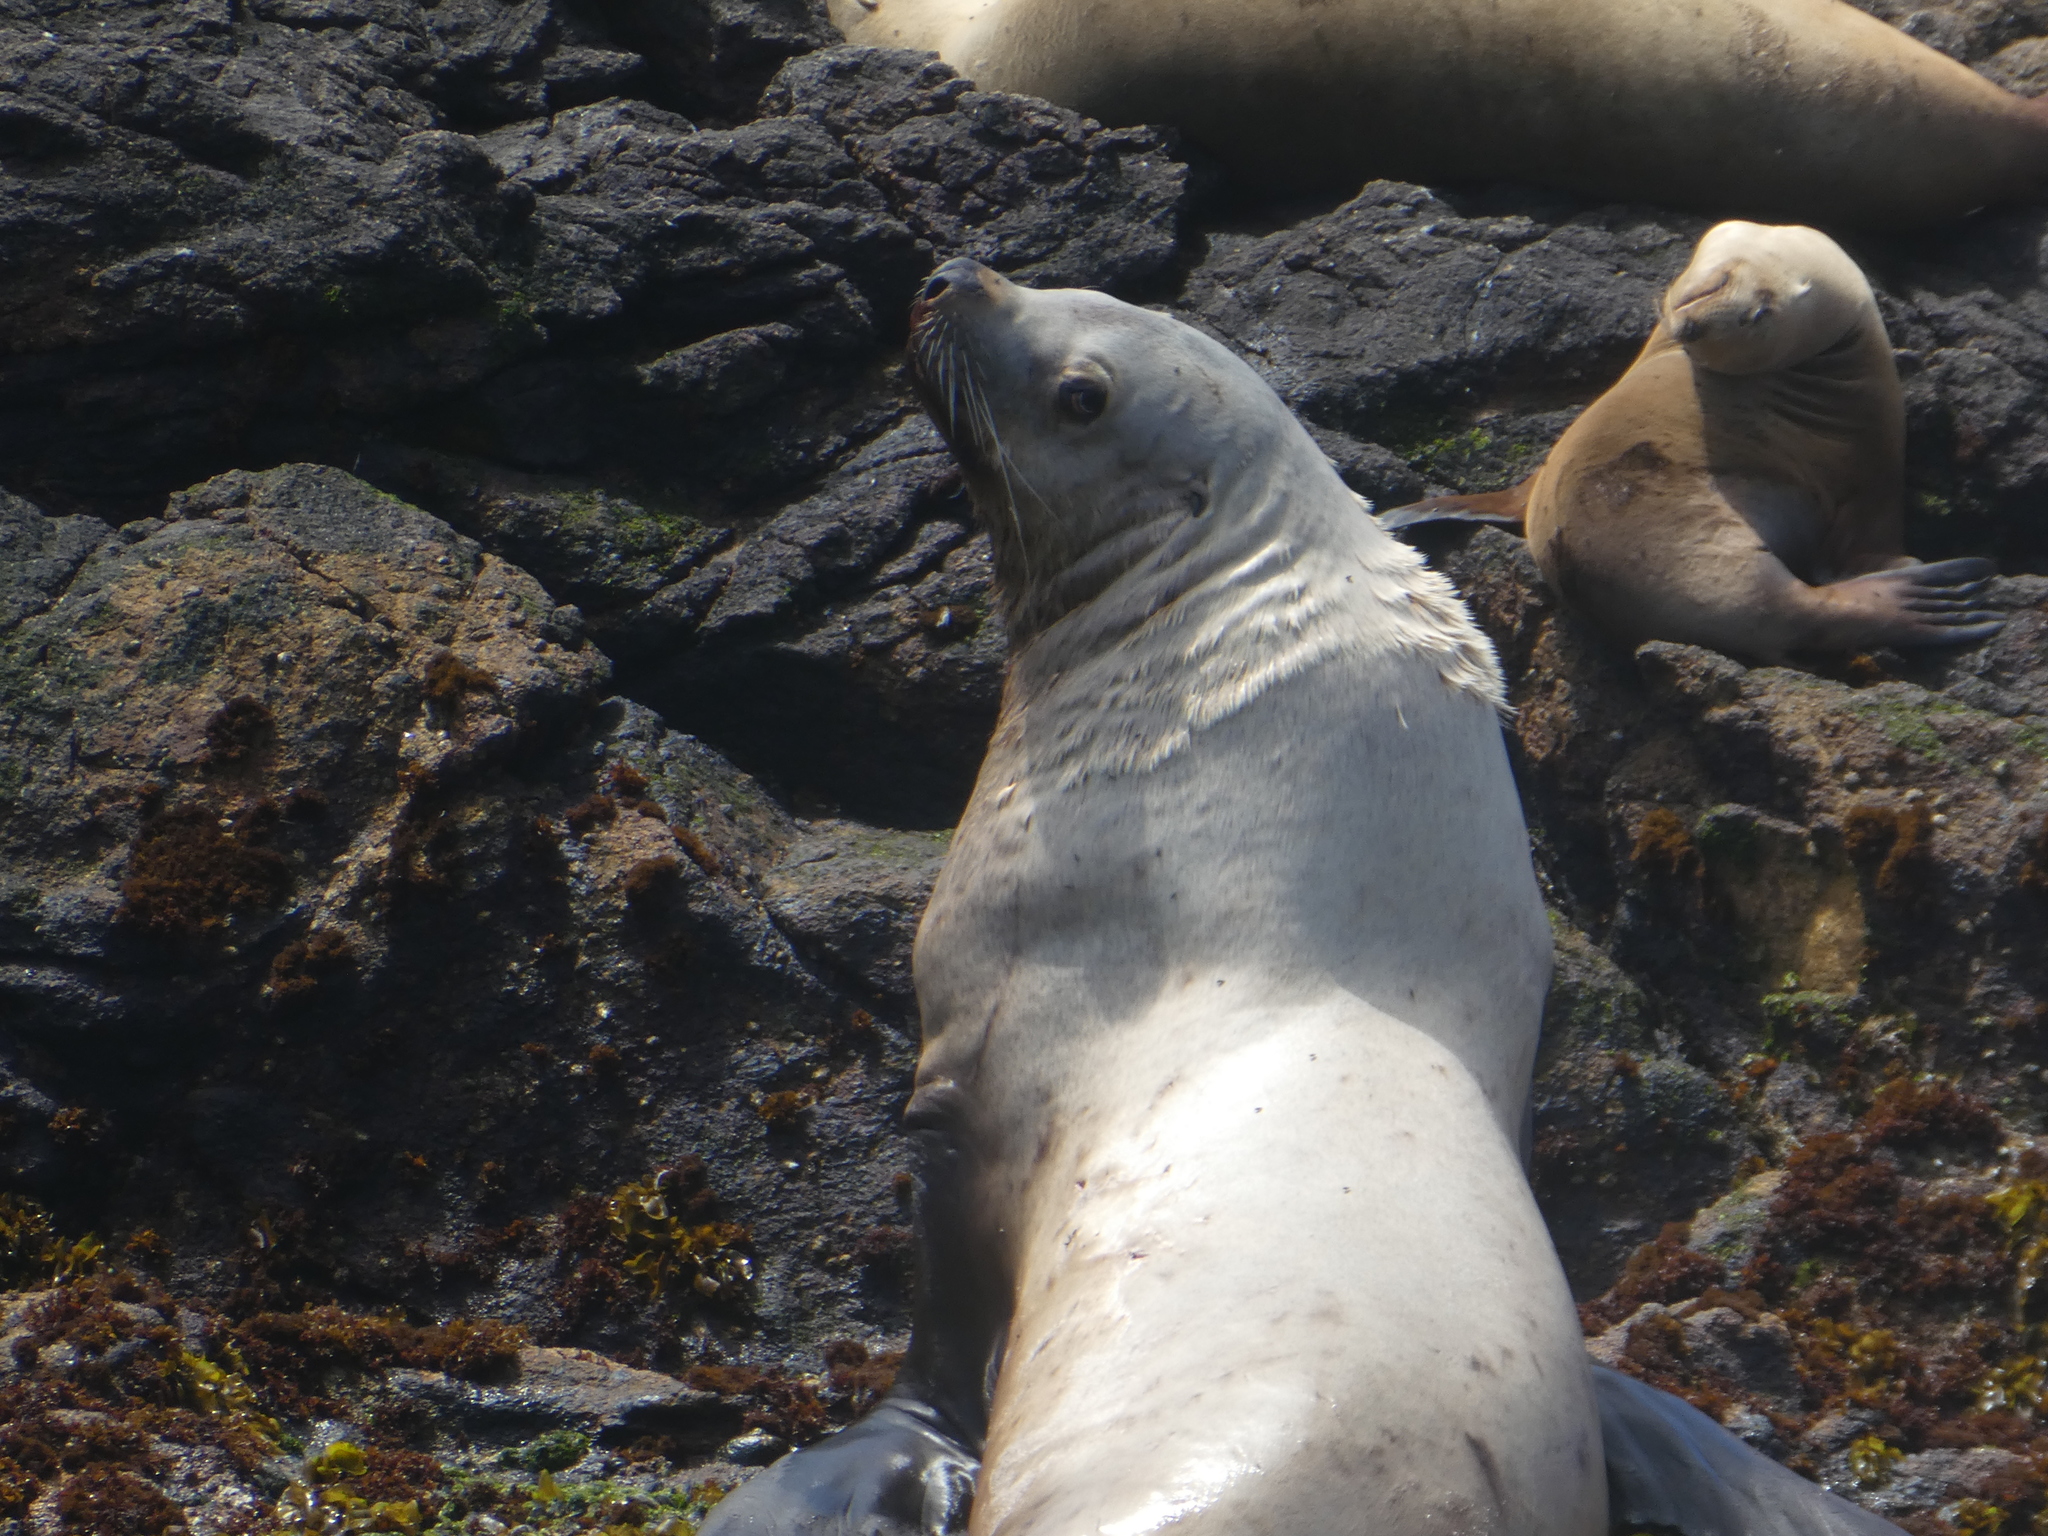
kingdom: Animalia
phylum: Chordata
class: Mammalia
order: Carnivora
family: Otariidae
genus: Eumetopias
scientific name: Eumetopias jubatus
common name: Steller sea lion
